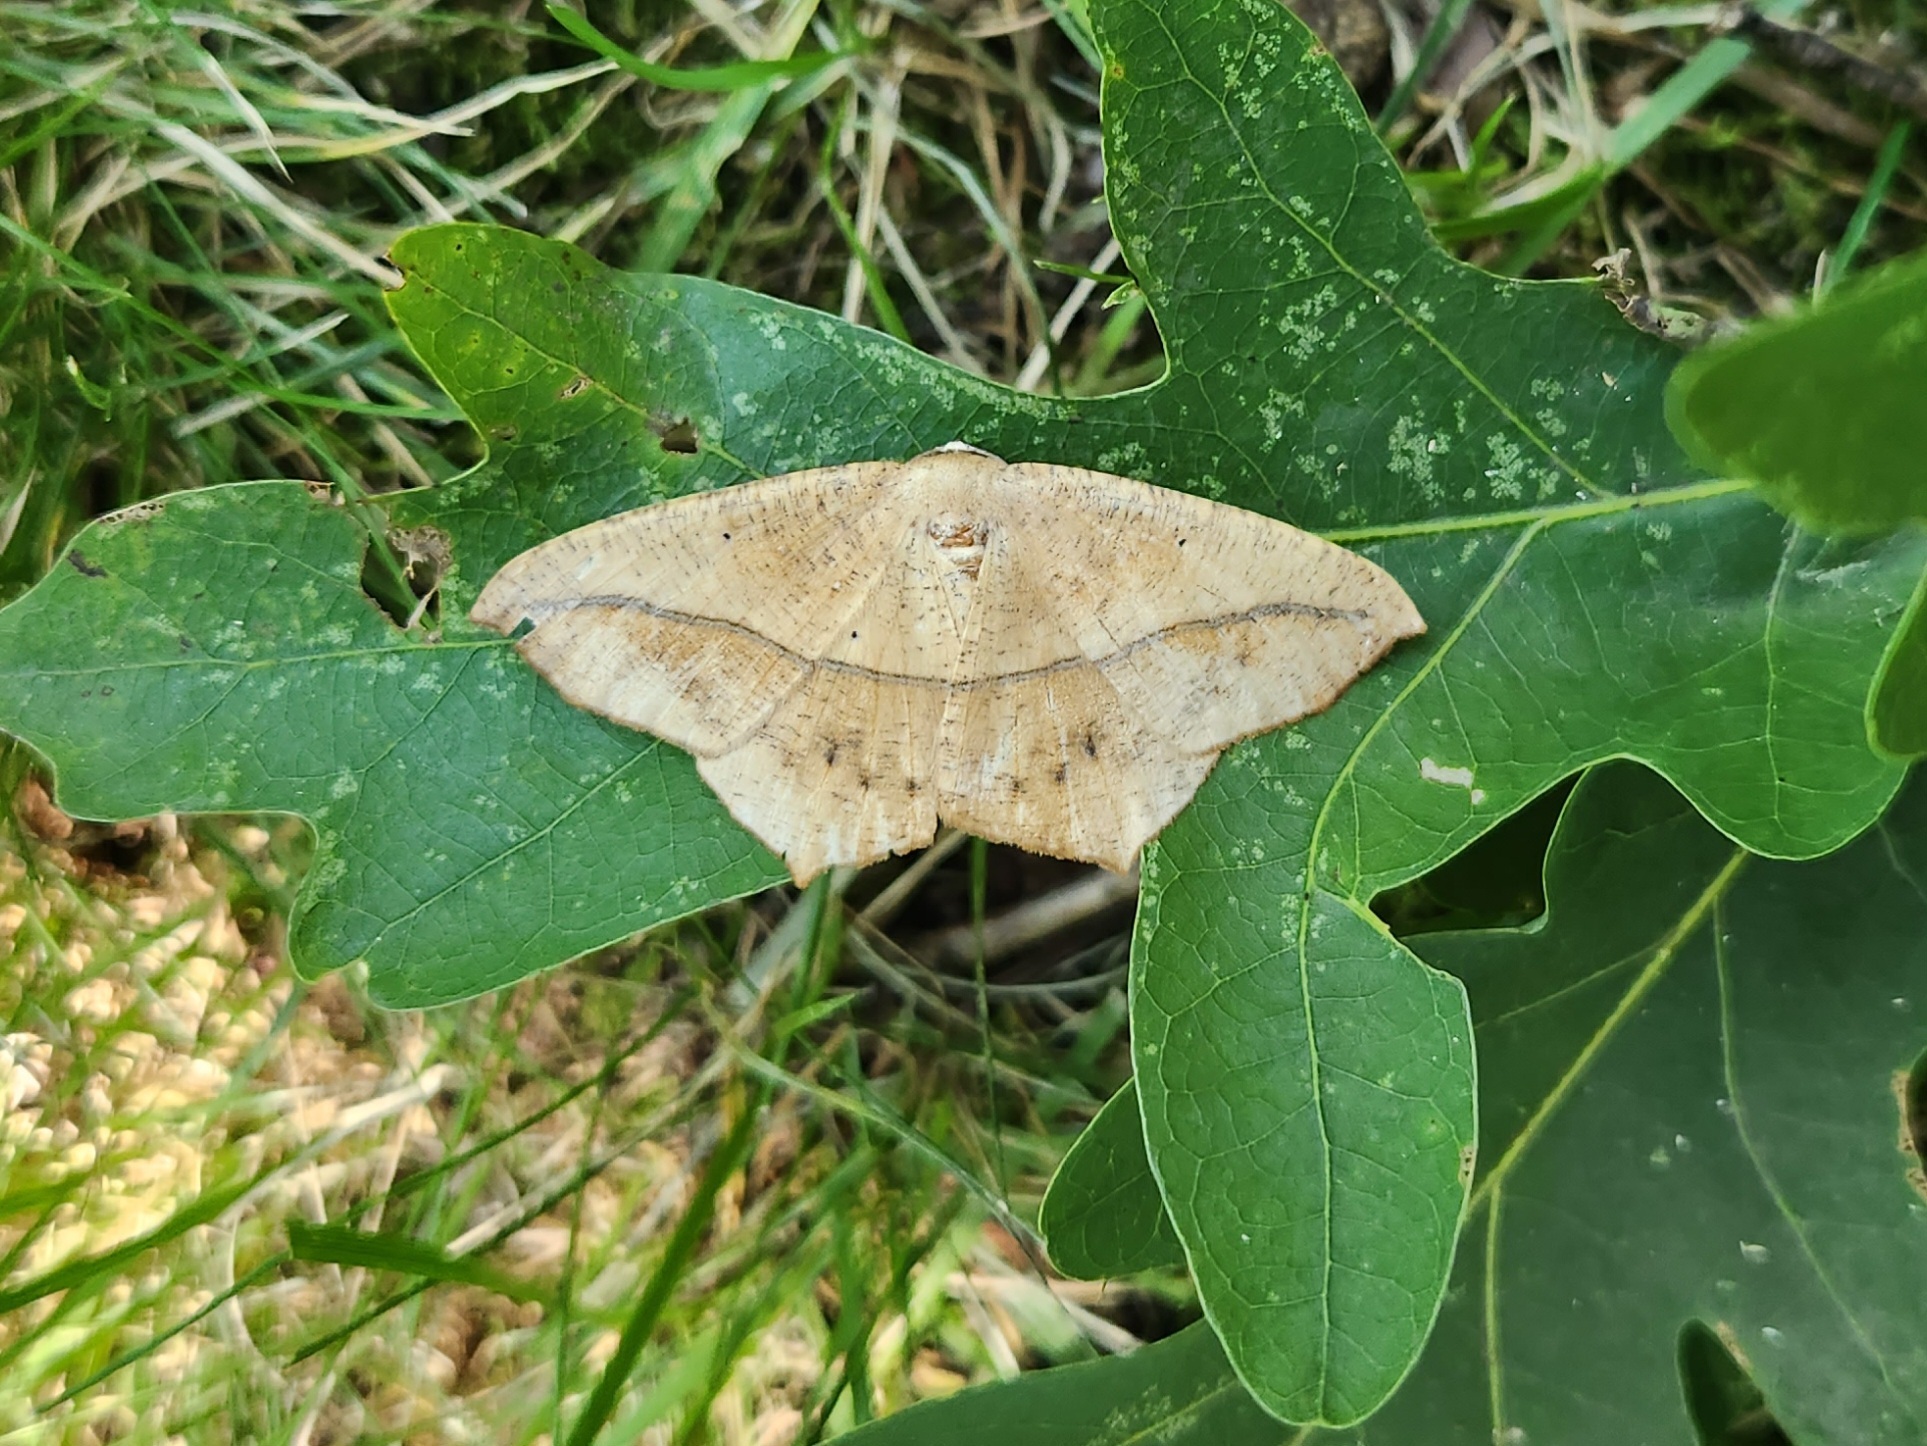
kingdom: Animalia
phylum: Arthropoda
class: Insecta
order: Lepidoptera
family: Geometridae
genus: Prochoerodes
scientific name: Prochoerodes lineola
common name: Large maple spanworm
